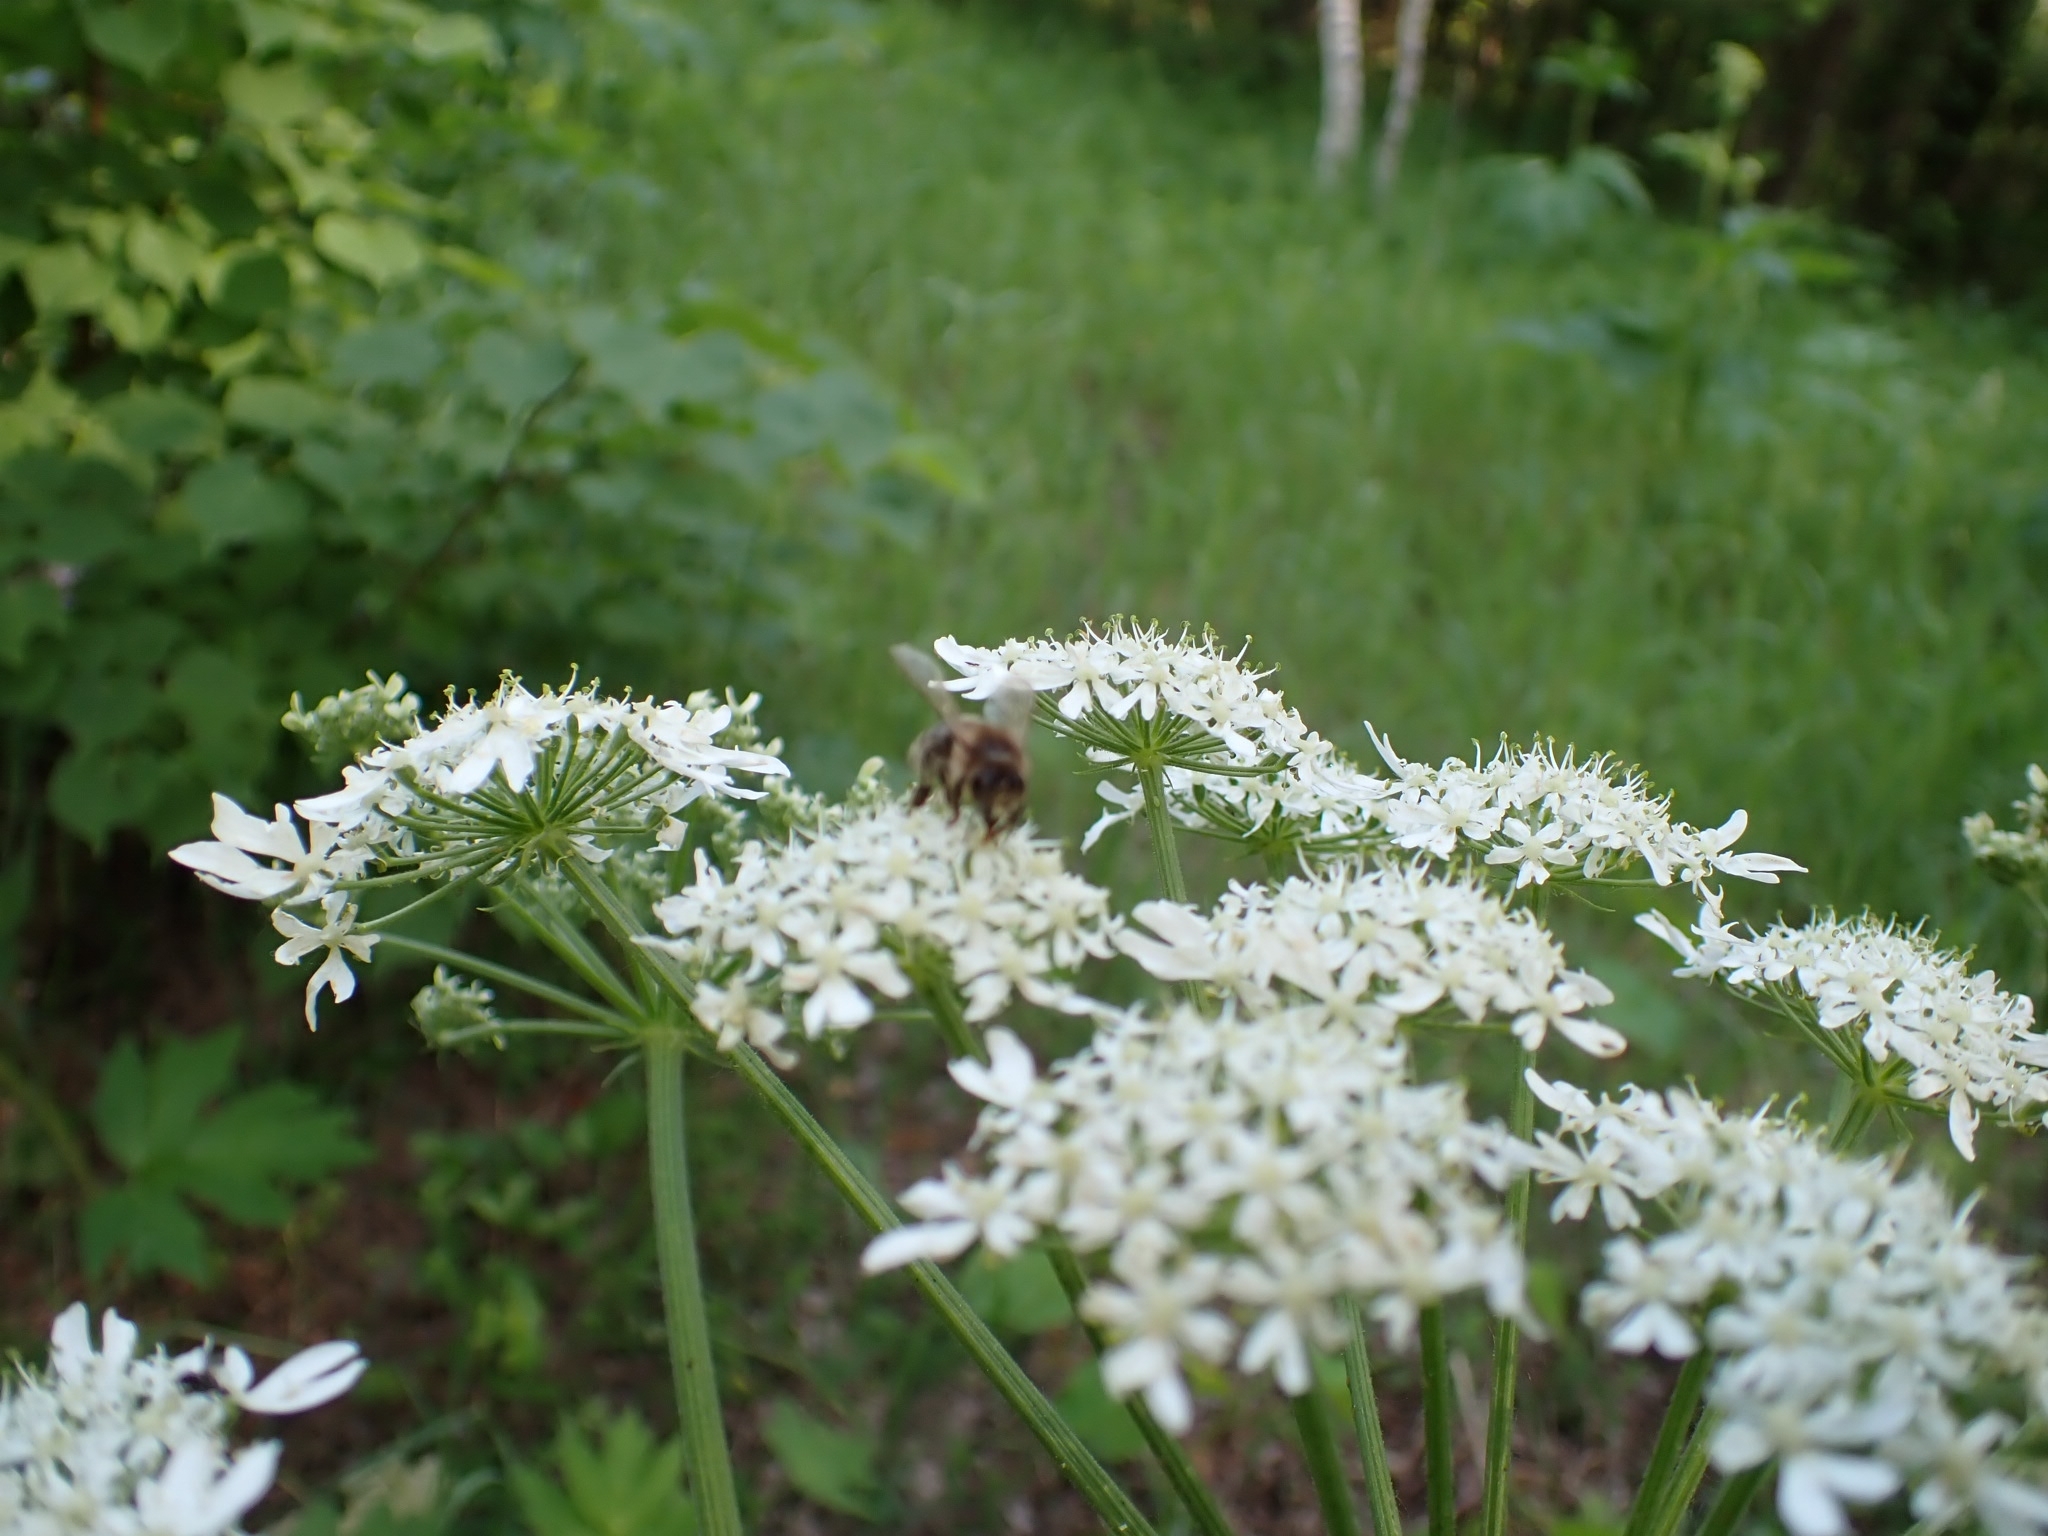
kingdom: Animalia
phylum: Arthropoda
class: Insecta
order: Hymenoptera
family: Apidae
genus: Apis
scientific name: Apis mellifera
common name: Honey bee
